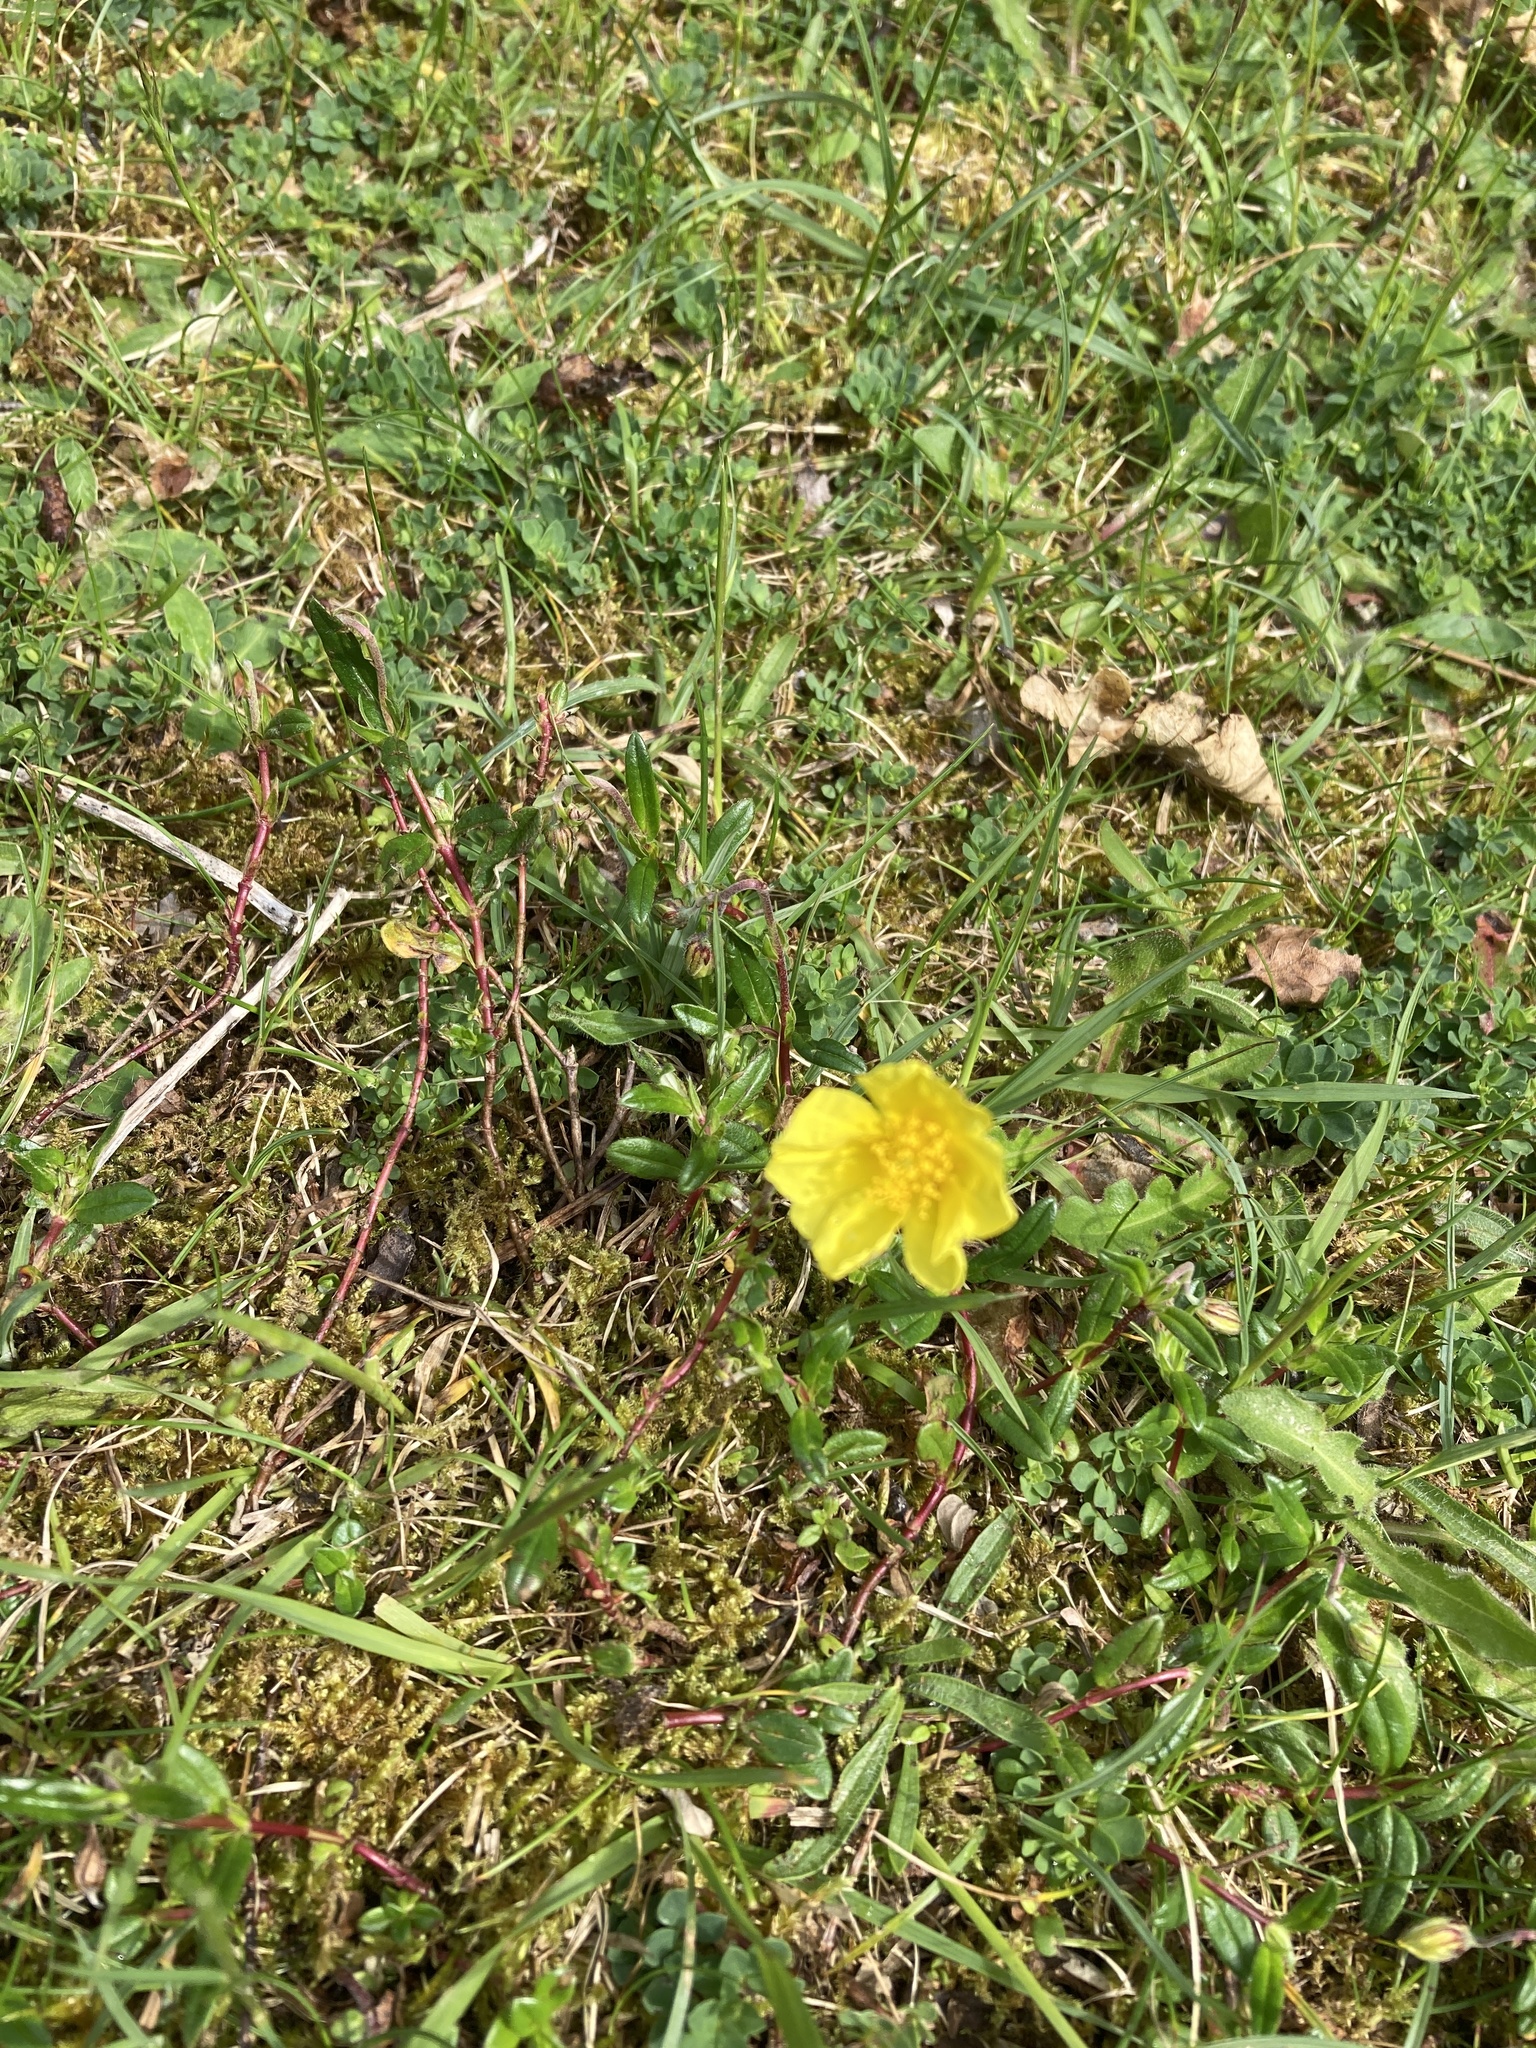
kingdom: Plantae
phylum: Tracheophyta
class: Magnoliopsida
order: Malvales
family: Cistaceae
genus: Helianthemum
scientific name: Helianthemum nummularium
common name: Common rock-rose
